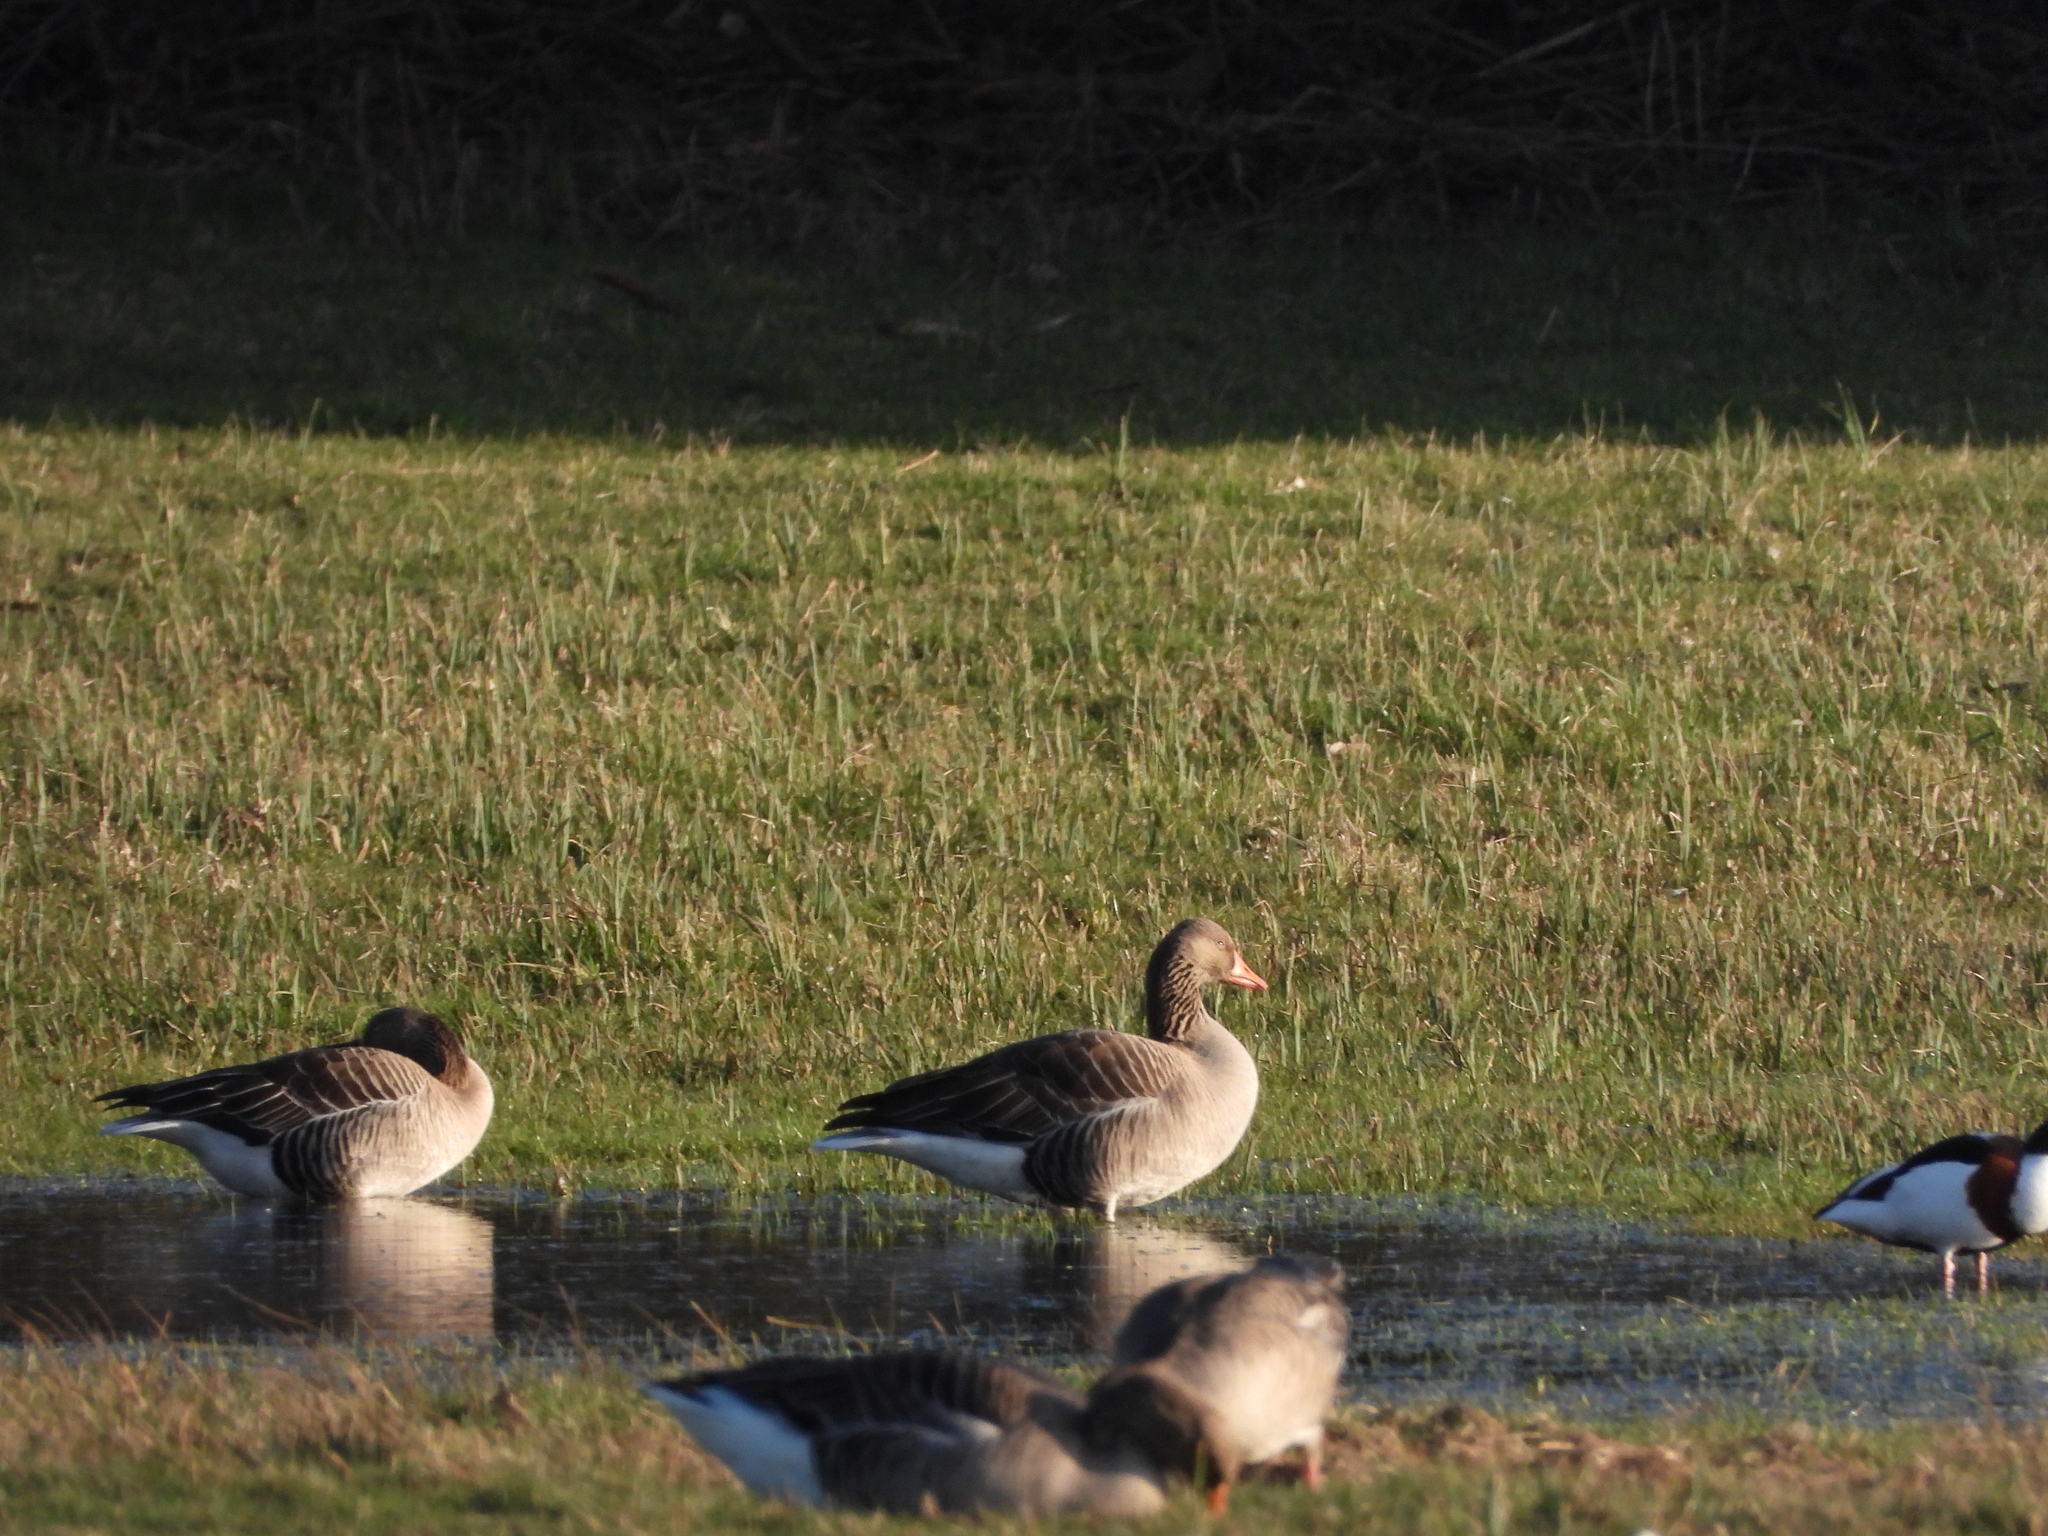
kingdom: Animalia
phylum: Chordata
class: Aves
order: Anseriformes
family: Anatidae
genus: Anser
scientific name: Anser anser
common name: Greylag goose
